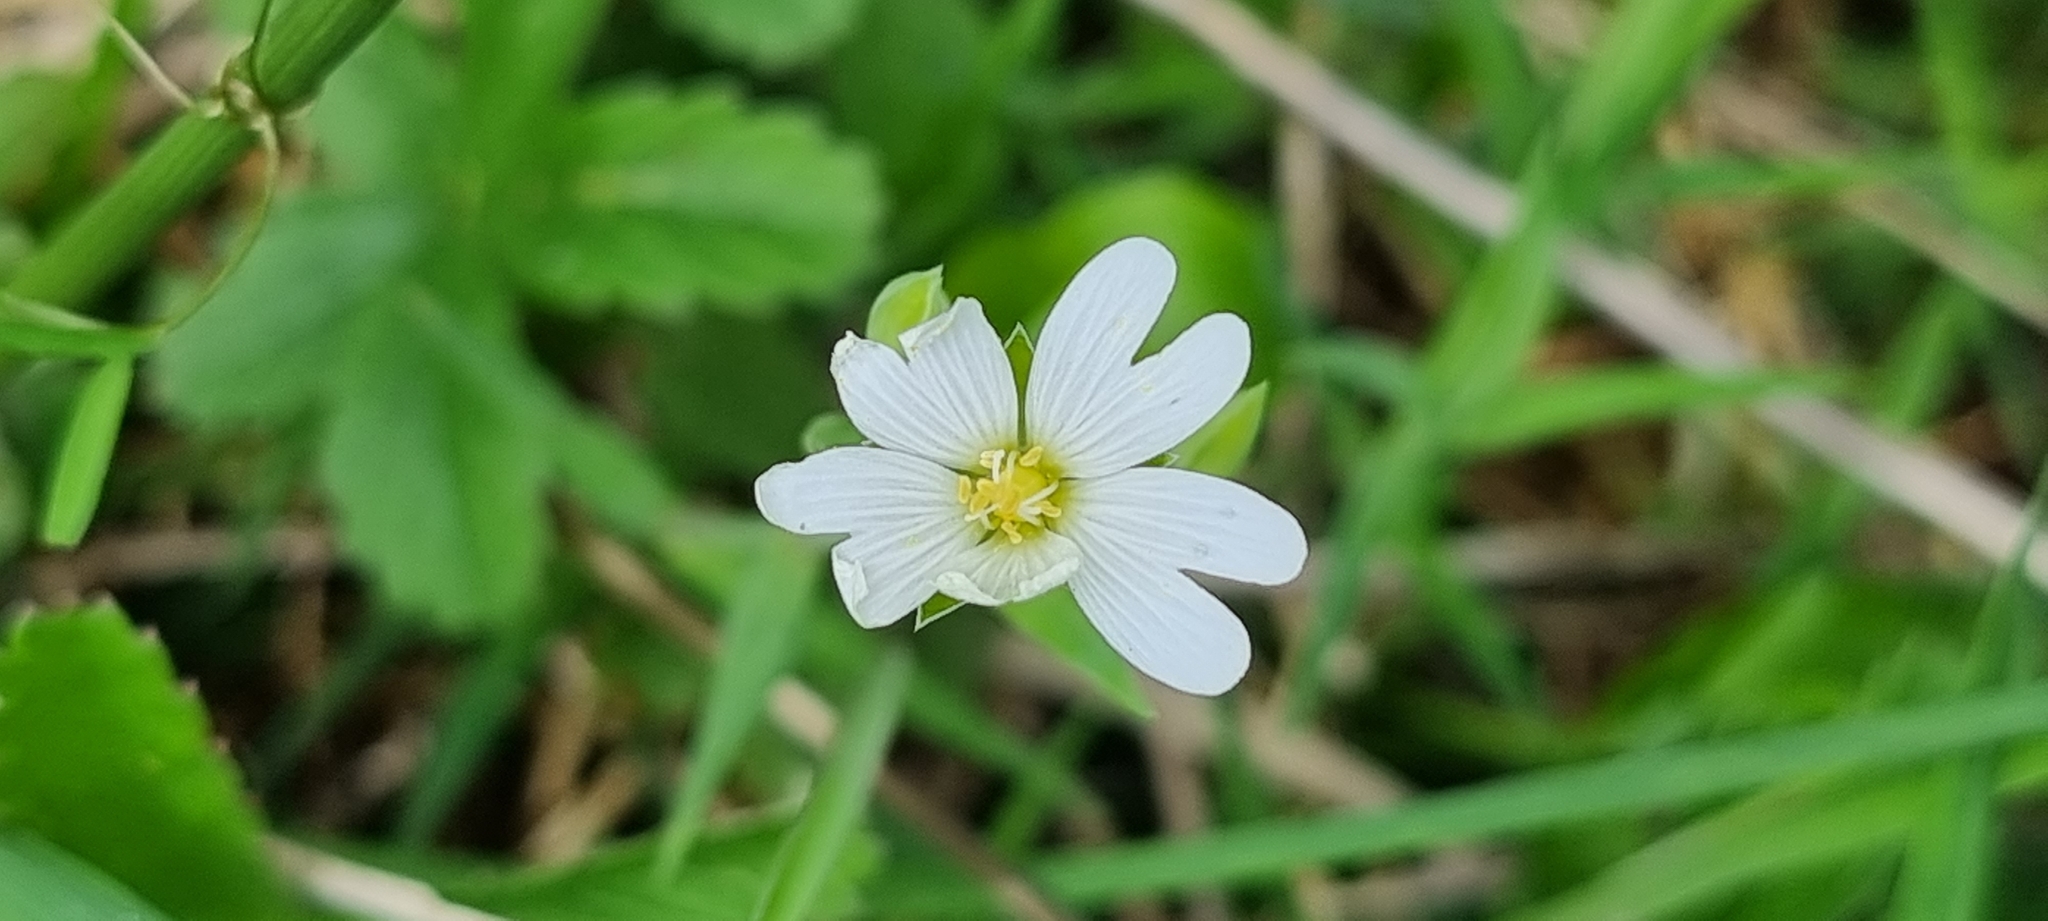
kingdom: Plantae
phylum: Tracheophyta
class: Magnoliopsida
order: Caryophyllales
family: Caryophyllaceae
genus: Rabelera
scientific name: Rabelera holostea
